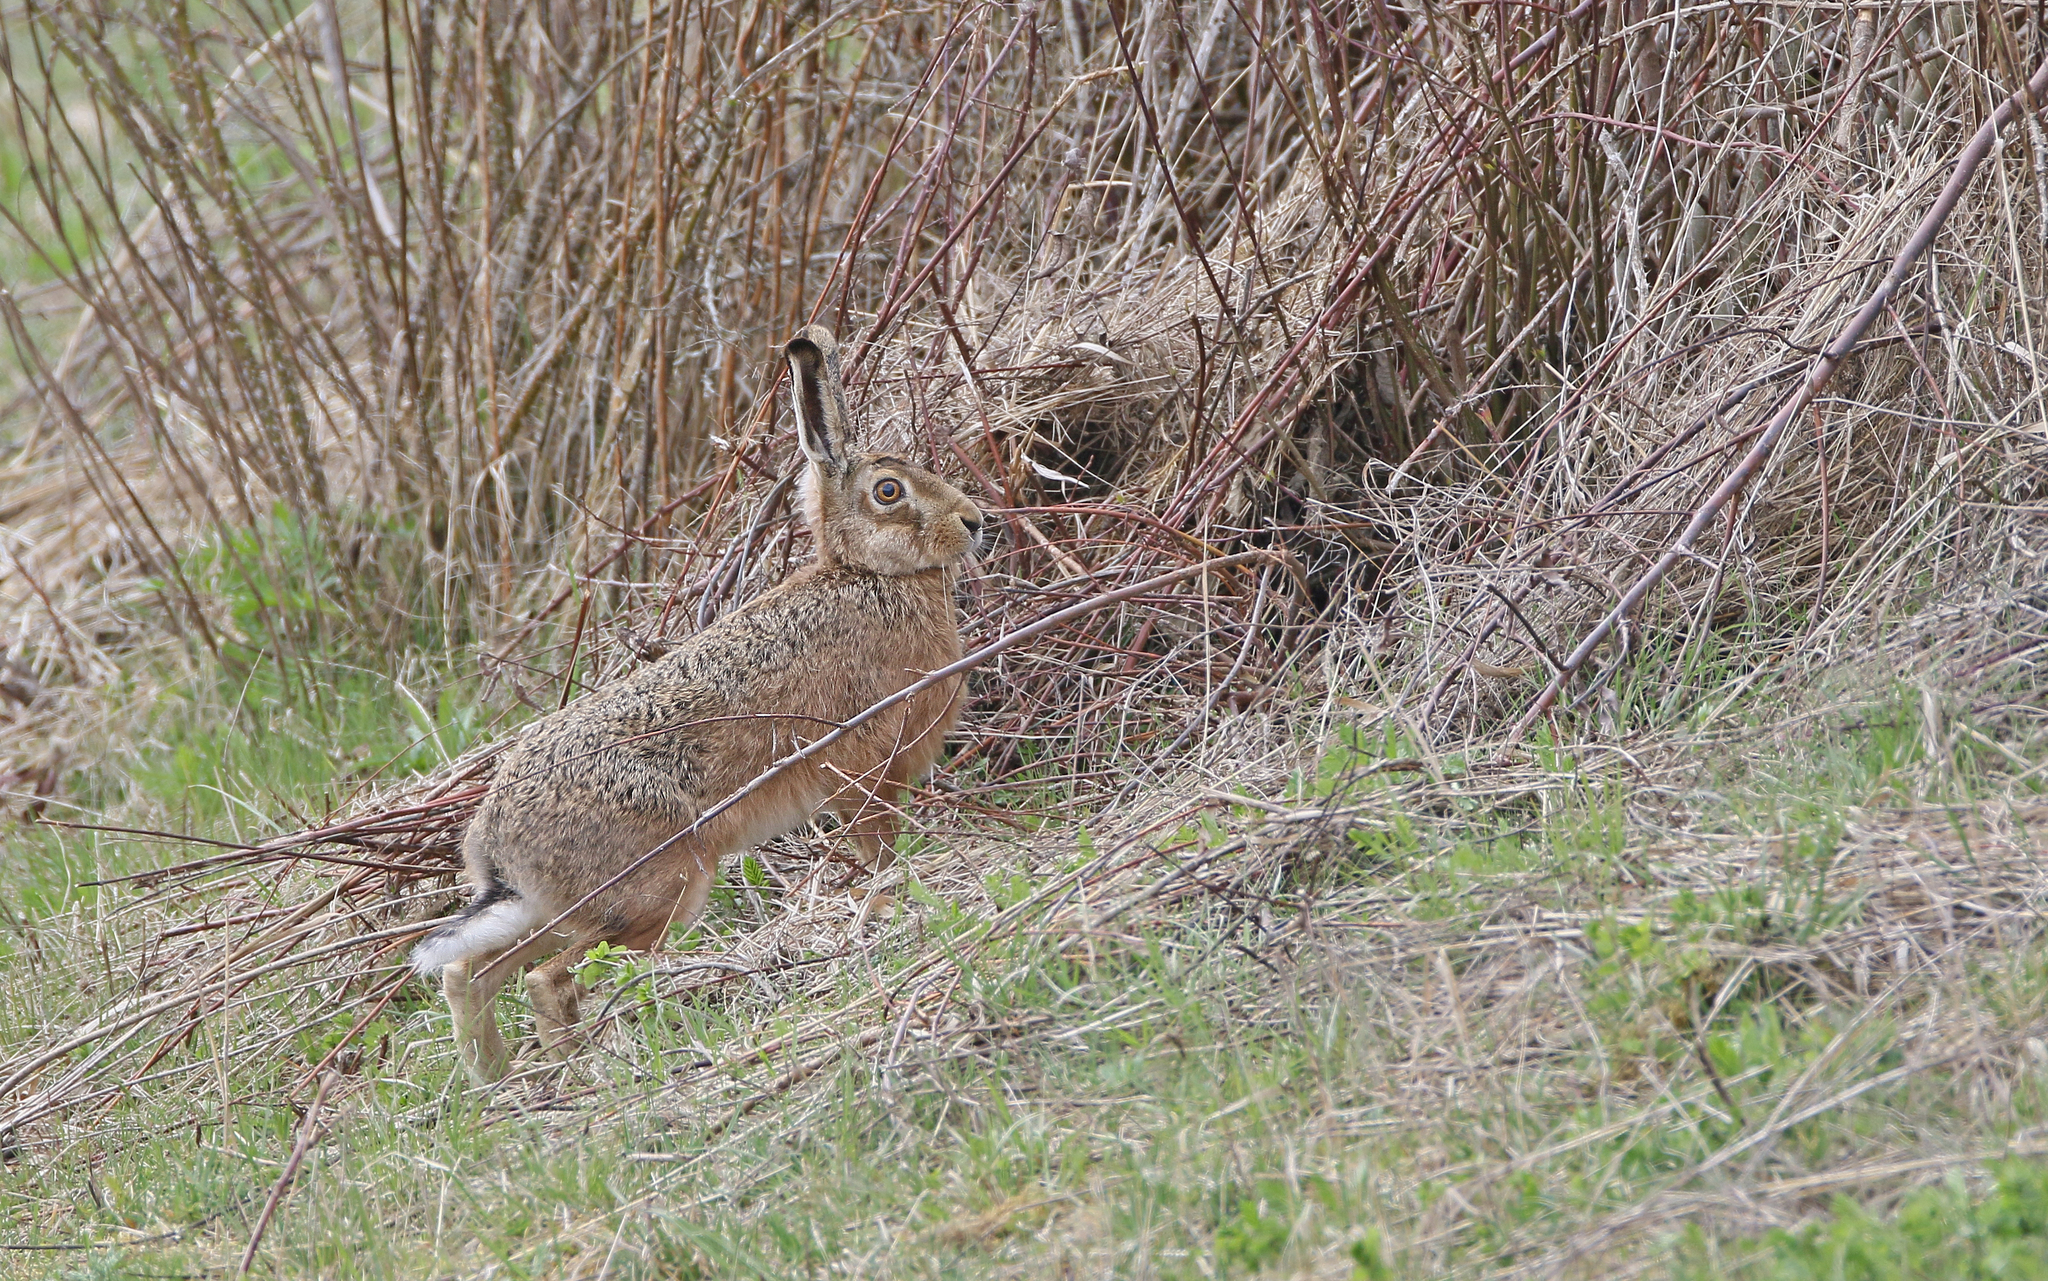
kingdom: Animalia
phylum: Chordata
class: Mammalia
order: Lagomorpha
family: Leporidae
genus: Lepus
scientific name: Lepus europaeus
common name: European hare
